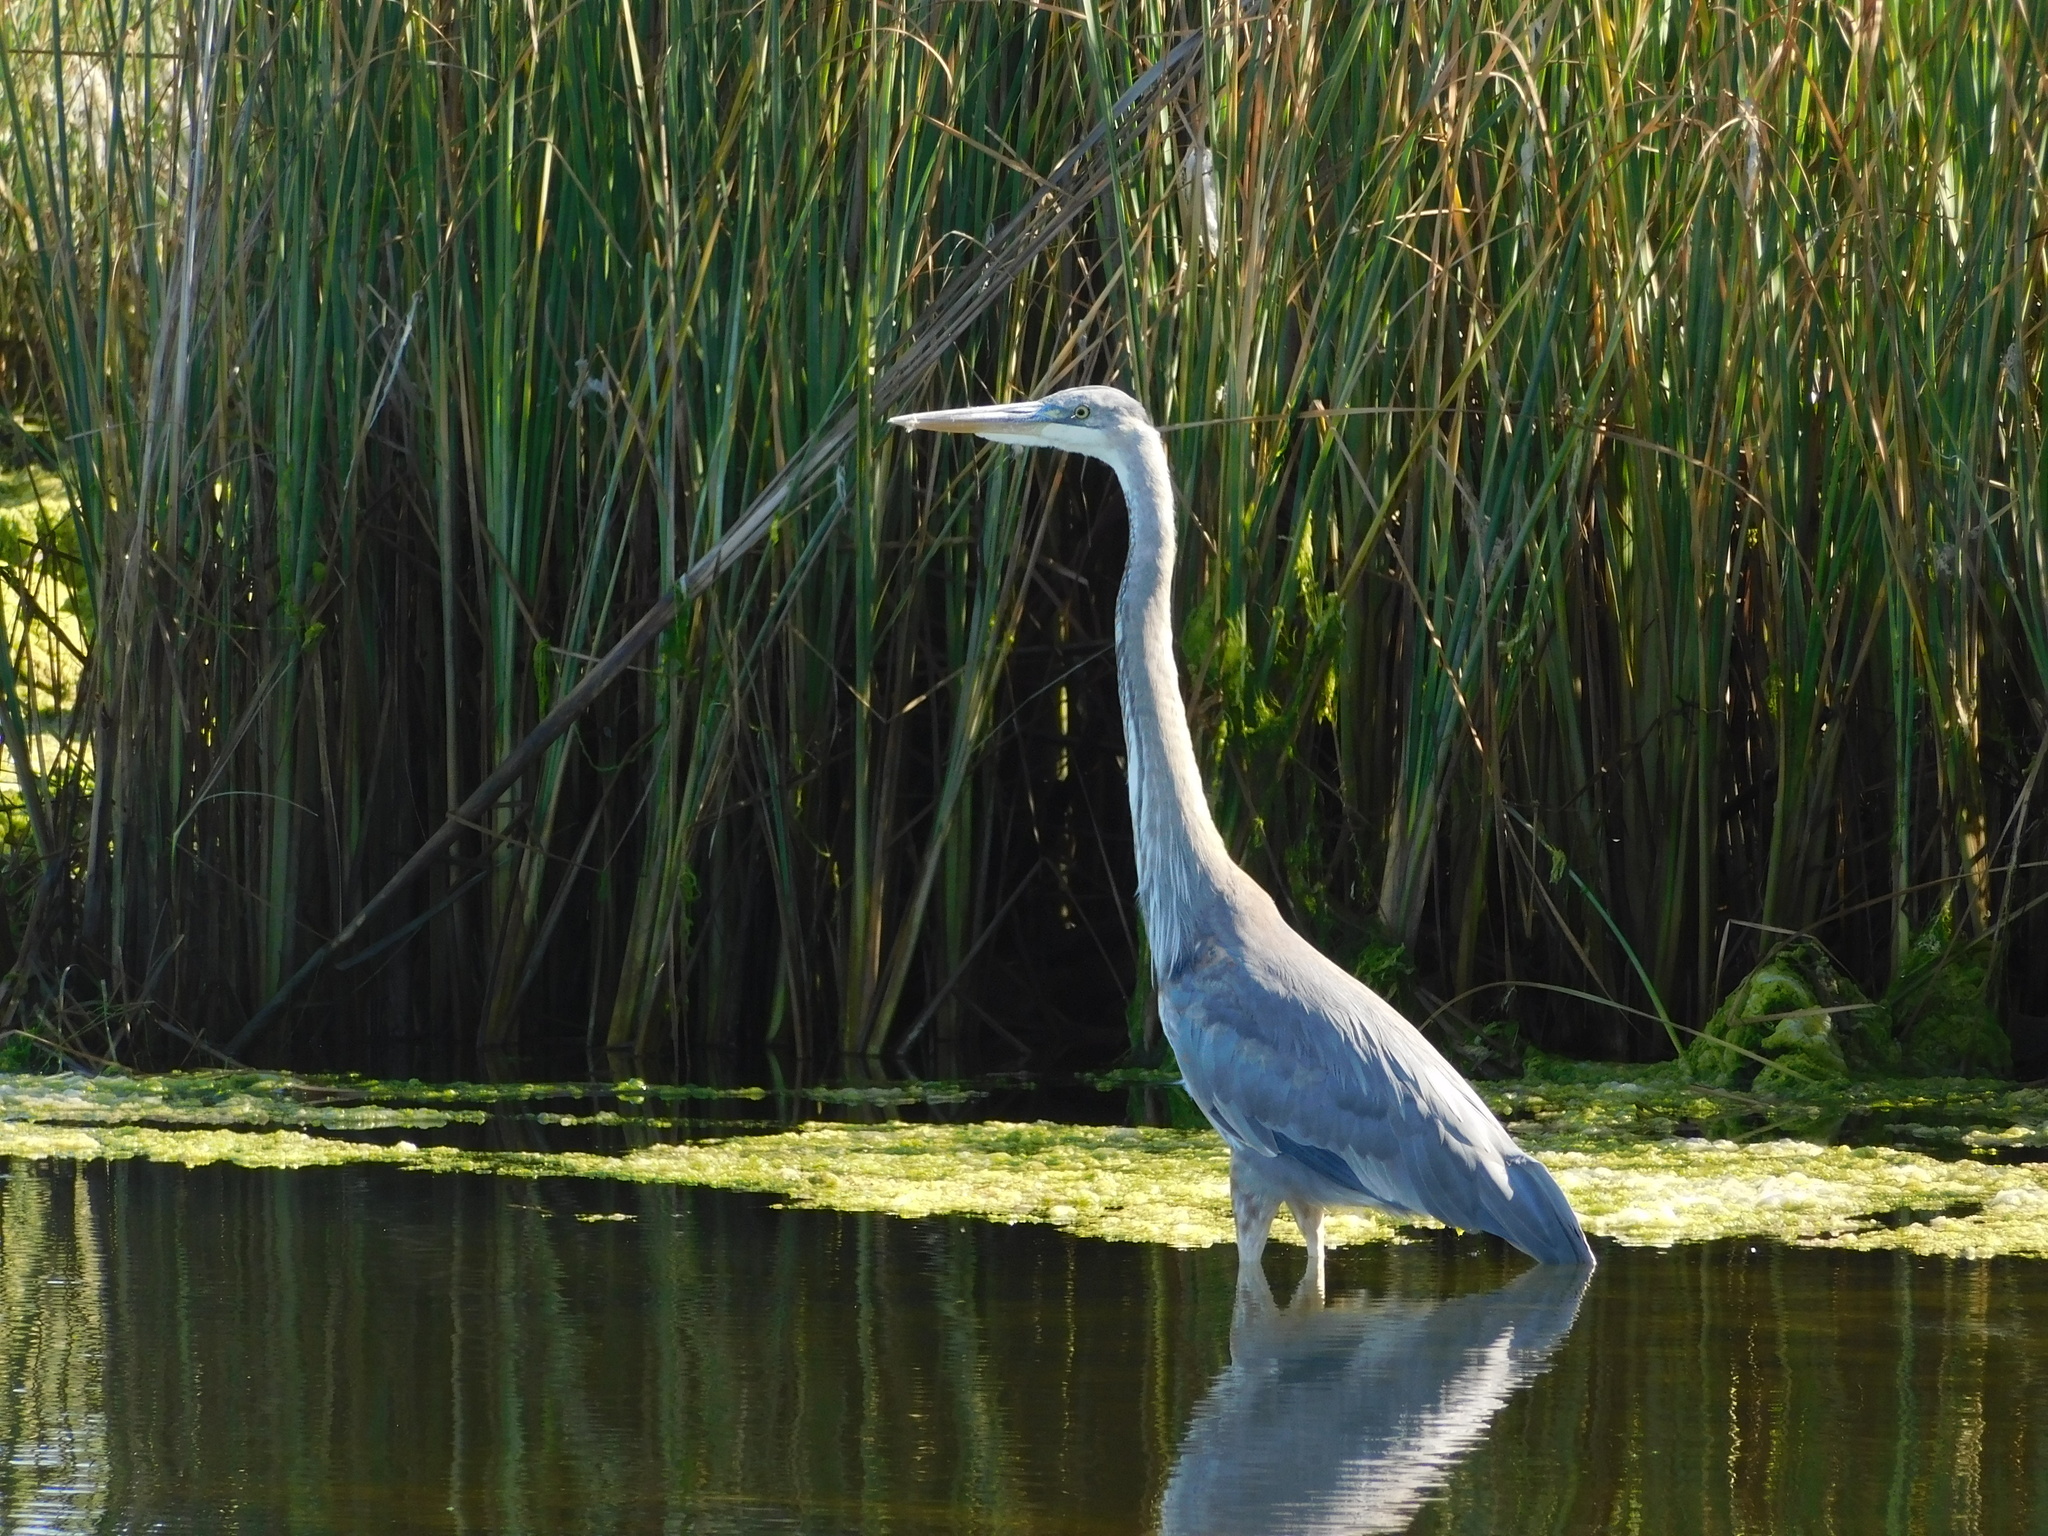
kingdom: Animalia
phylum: Chordata
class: Aves
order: Pelecaniformes
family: Ardeidae
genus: Ardea
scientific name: Ardea herodias
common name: Great blue heron
